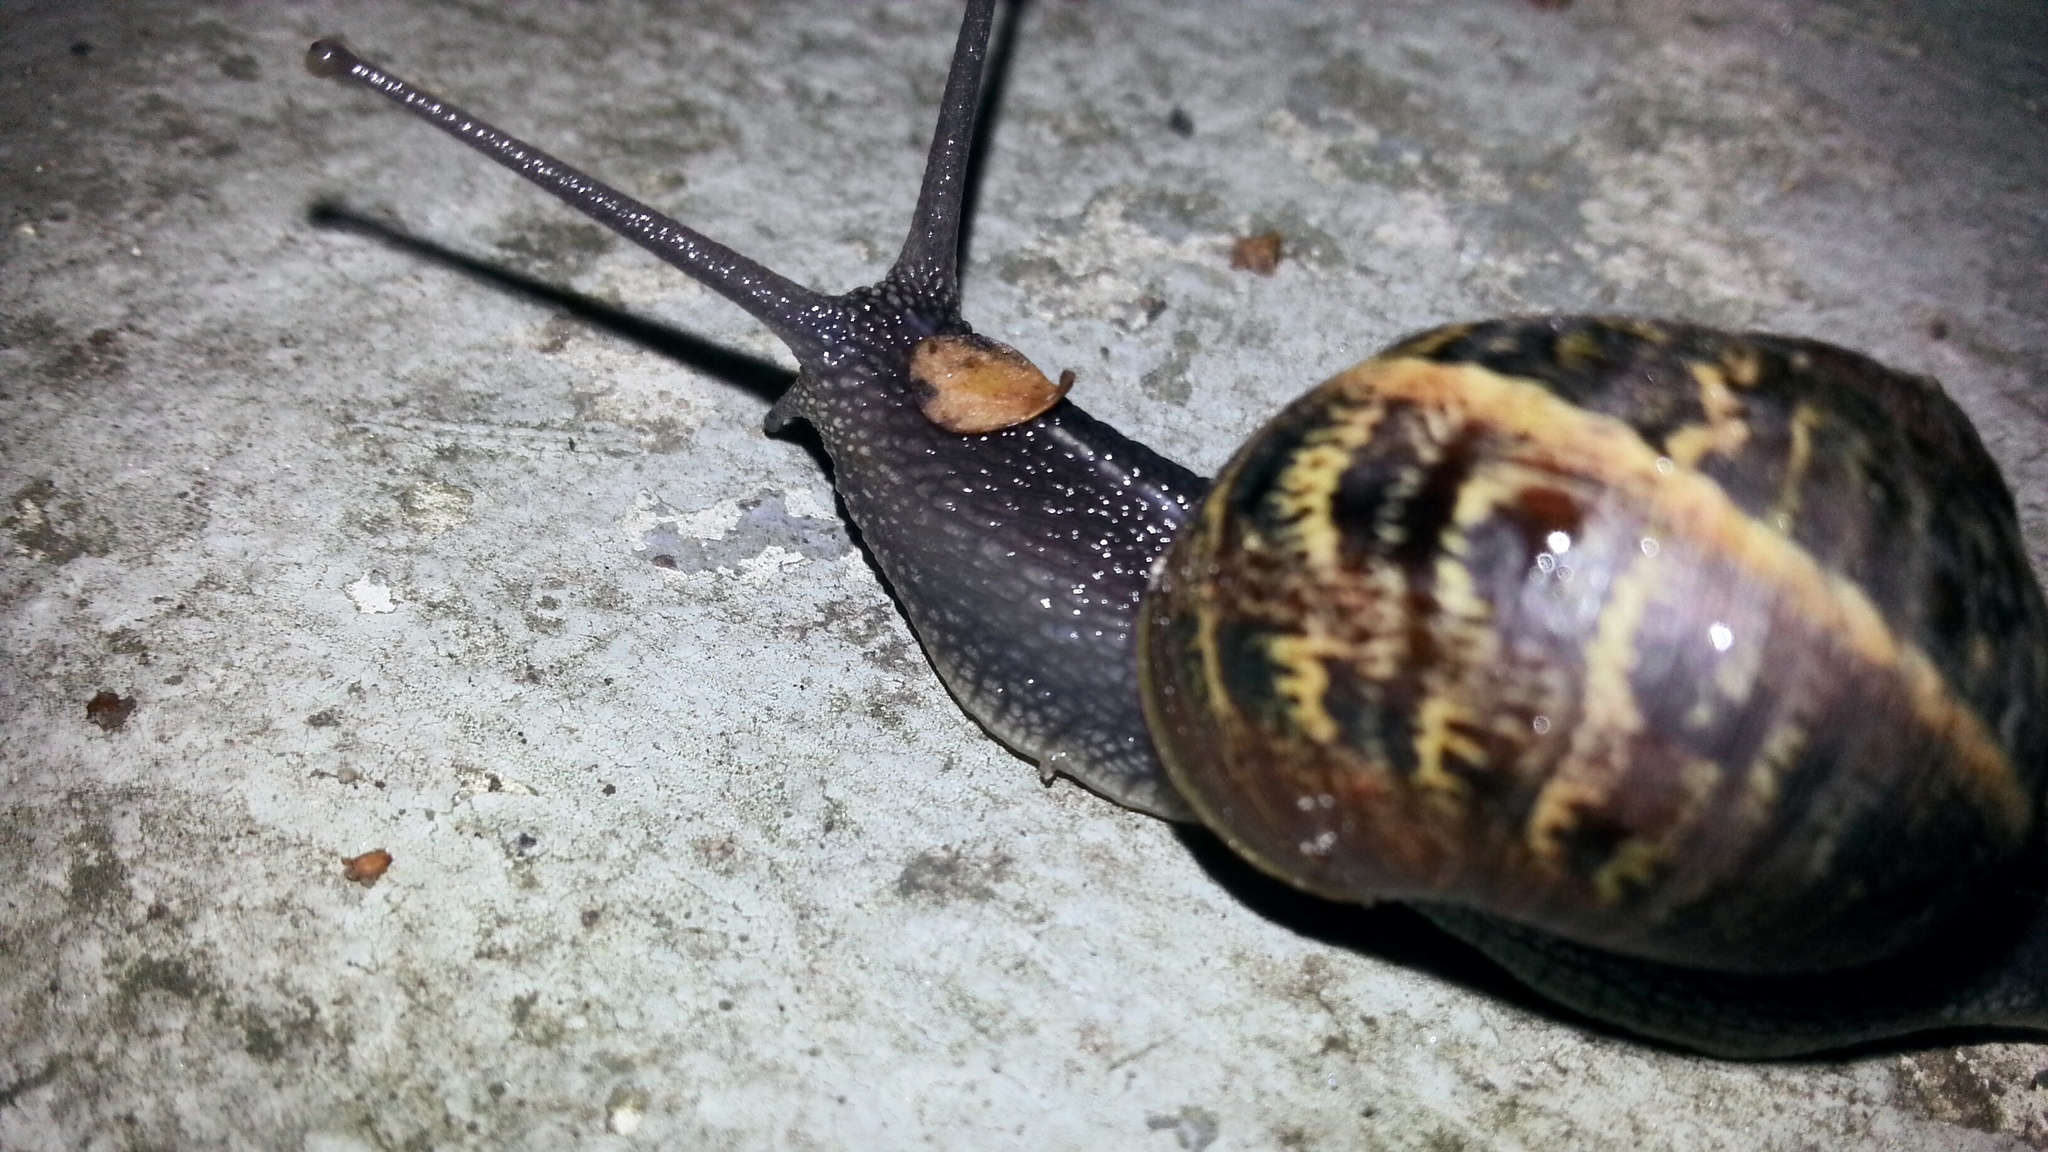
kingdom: Animalia
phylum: Mollusca
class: Gastropoda
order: Stylommatophora
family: Helicidae
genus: Cornu
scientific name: Cornu aspersum
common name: Brown garden snail
